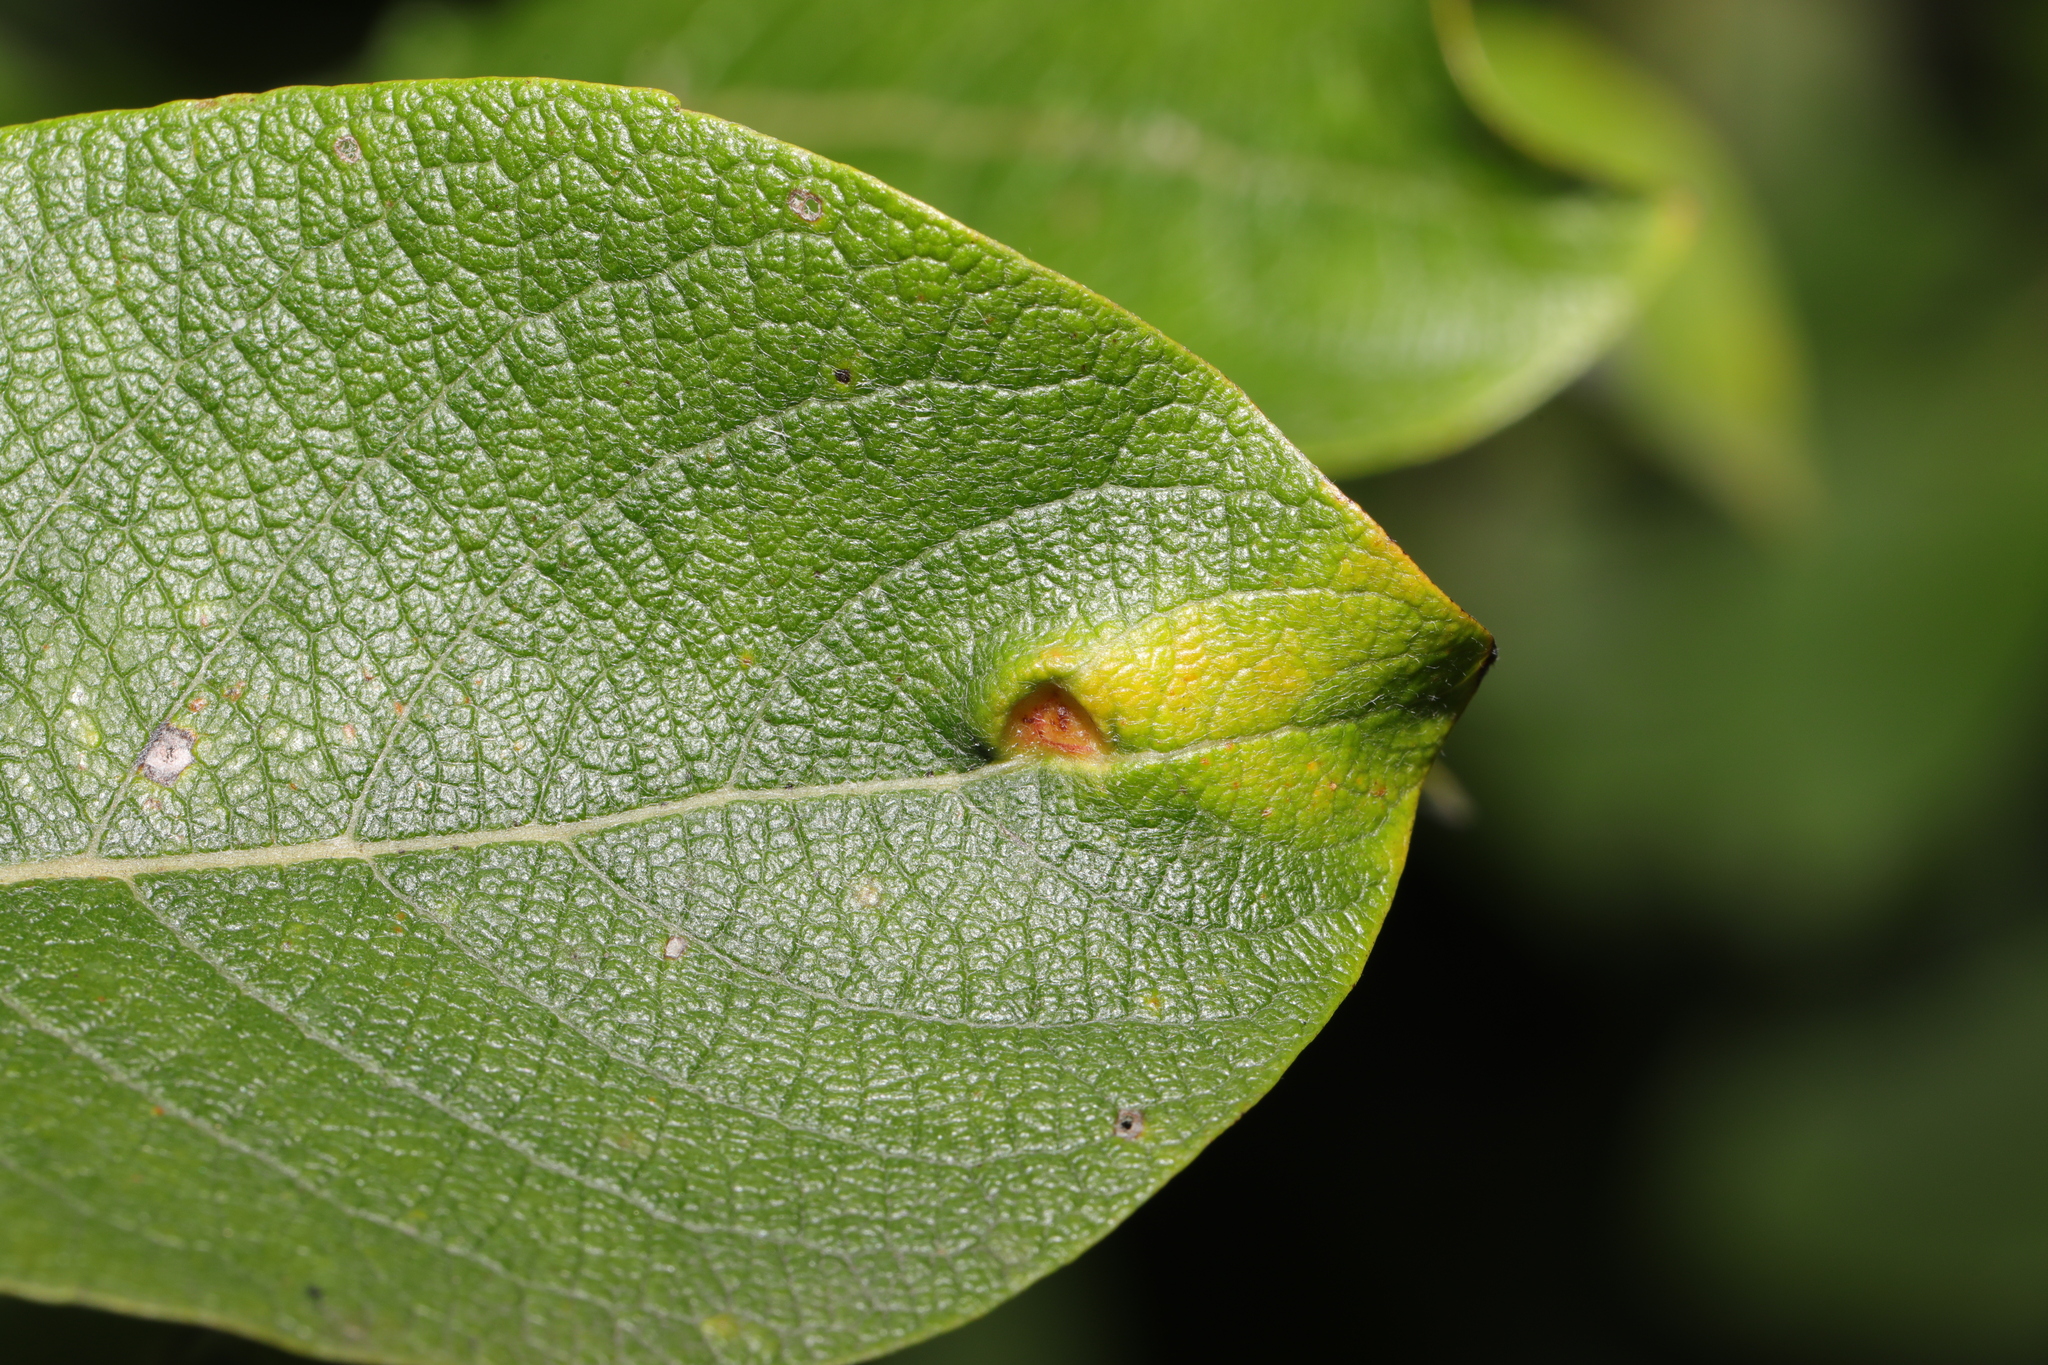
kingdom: Animalia
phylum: Arthropoda
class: Insecta
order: Hymenoptera
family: Tenthredinidae
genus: Pontania
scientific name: Pontania pedunculi
